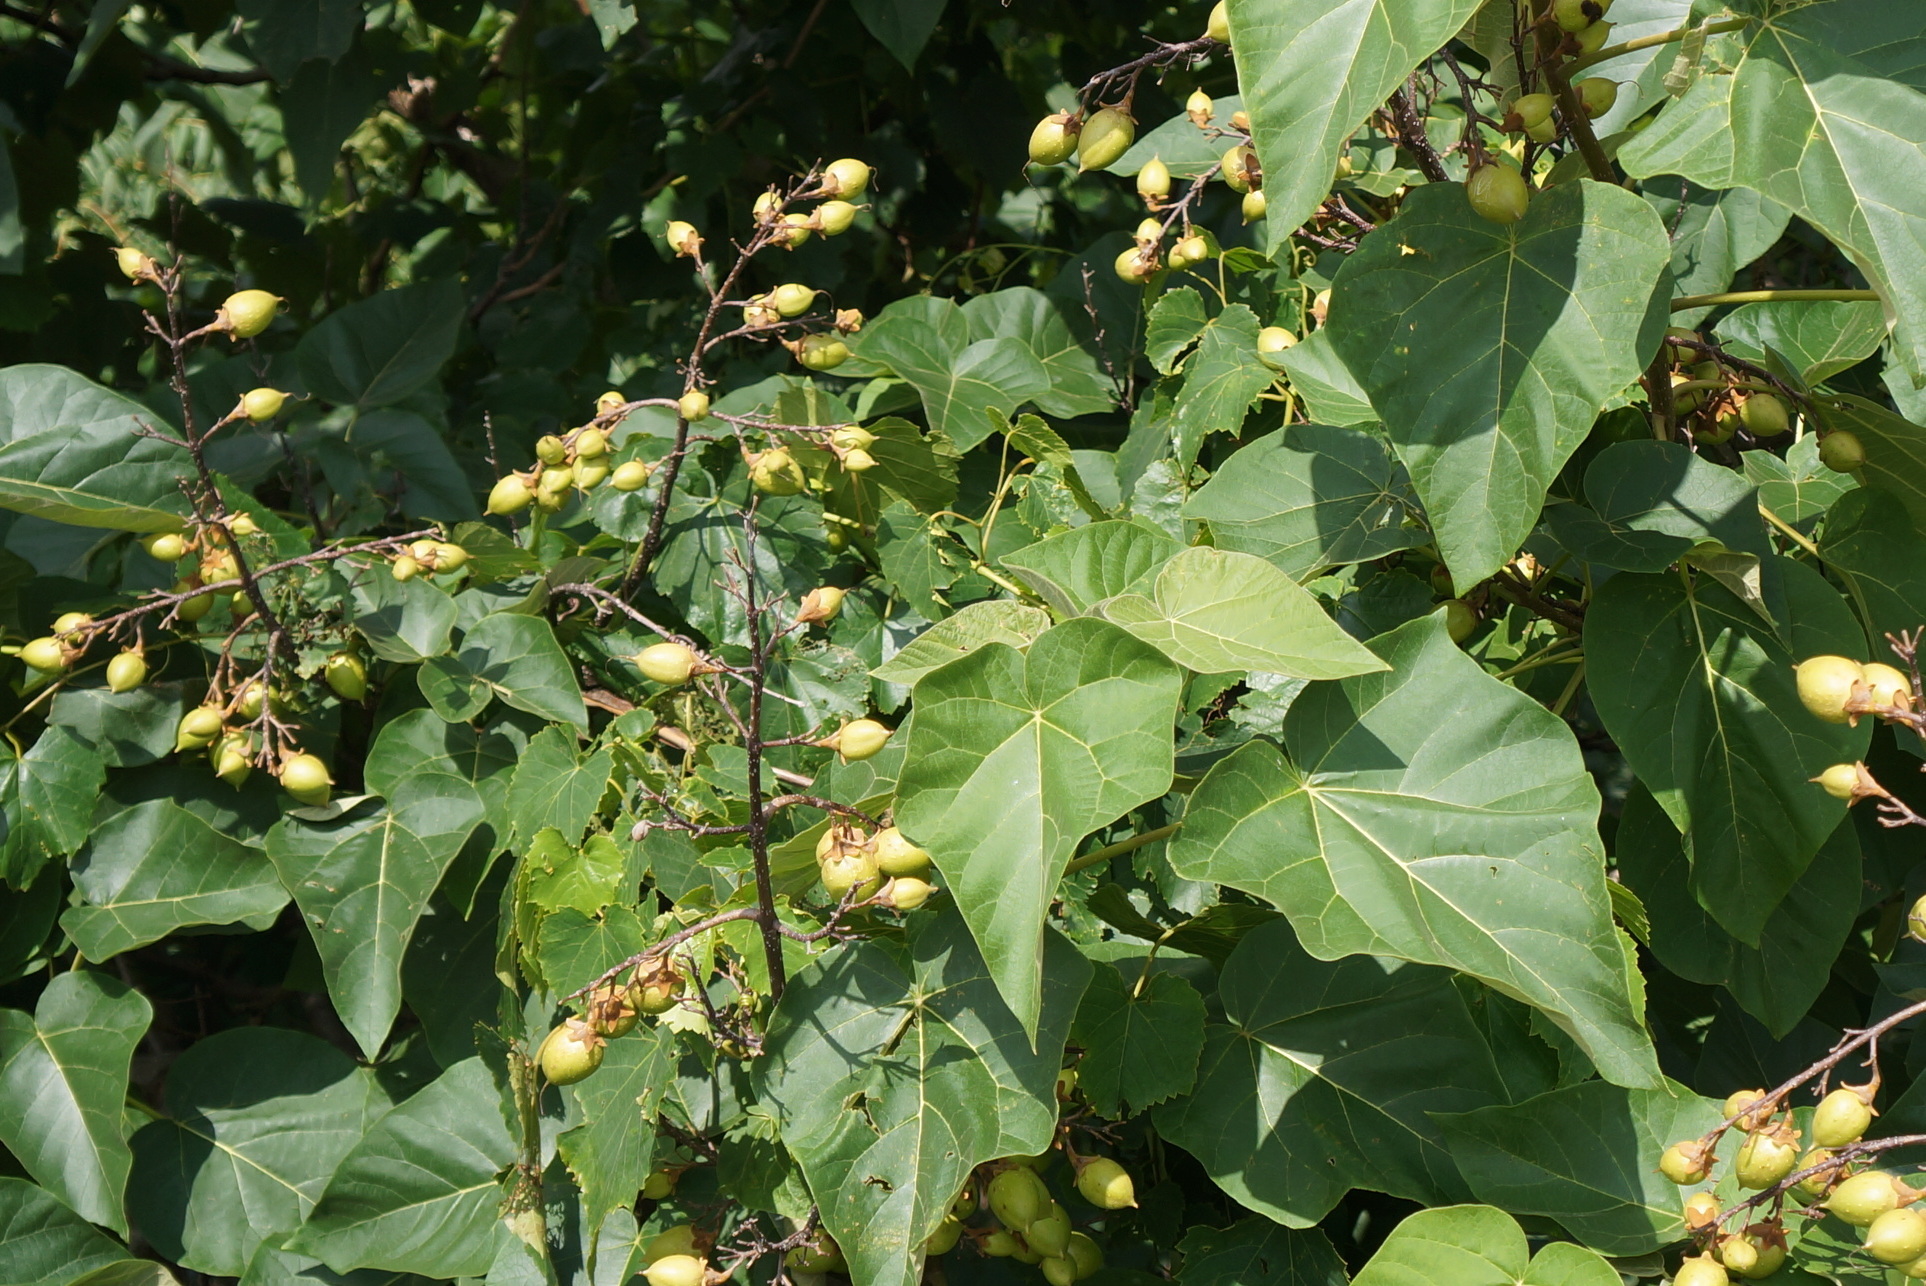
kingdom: Plantae
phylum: Tracheophyta
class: Magnoliopsida
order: Lamiales
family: Paulowniaceae
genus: Paulownia
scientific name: Paulownia tomentosa
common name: Foxglove-tree
